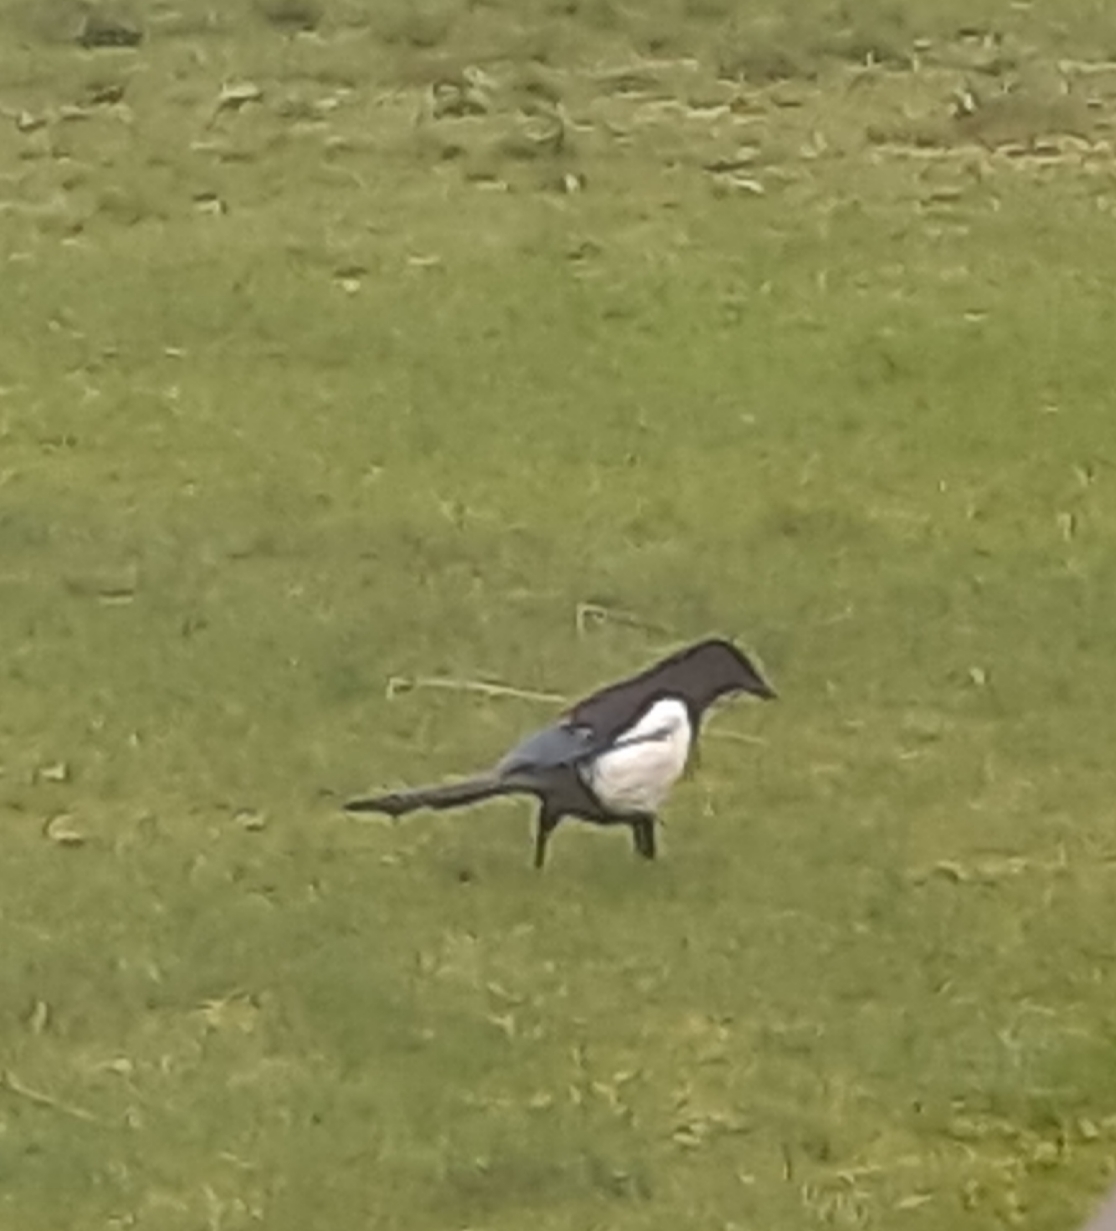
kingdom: Animalia
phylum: Chordata
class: Aves
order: Passeriformes
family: Corvidae
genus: Pica
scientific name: Pica pica
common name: Eurasian magpie
